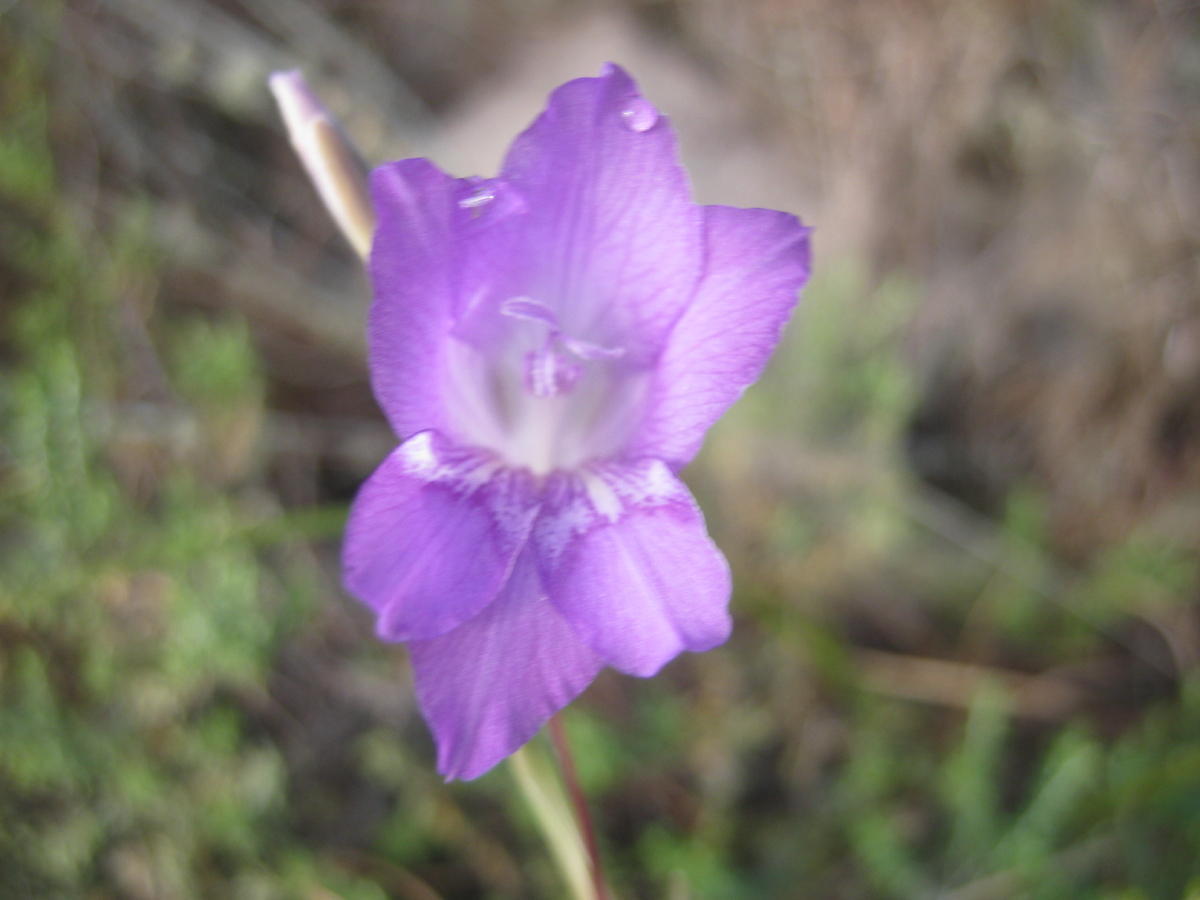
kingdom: Plantae
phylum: Tracheophyta
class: Liliopsida
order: Asparagales
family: Iridaceae
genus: Gladiolus
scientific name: Gladiolus carinatus
